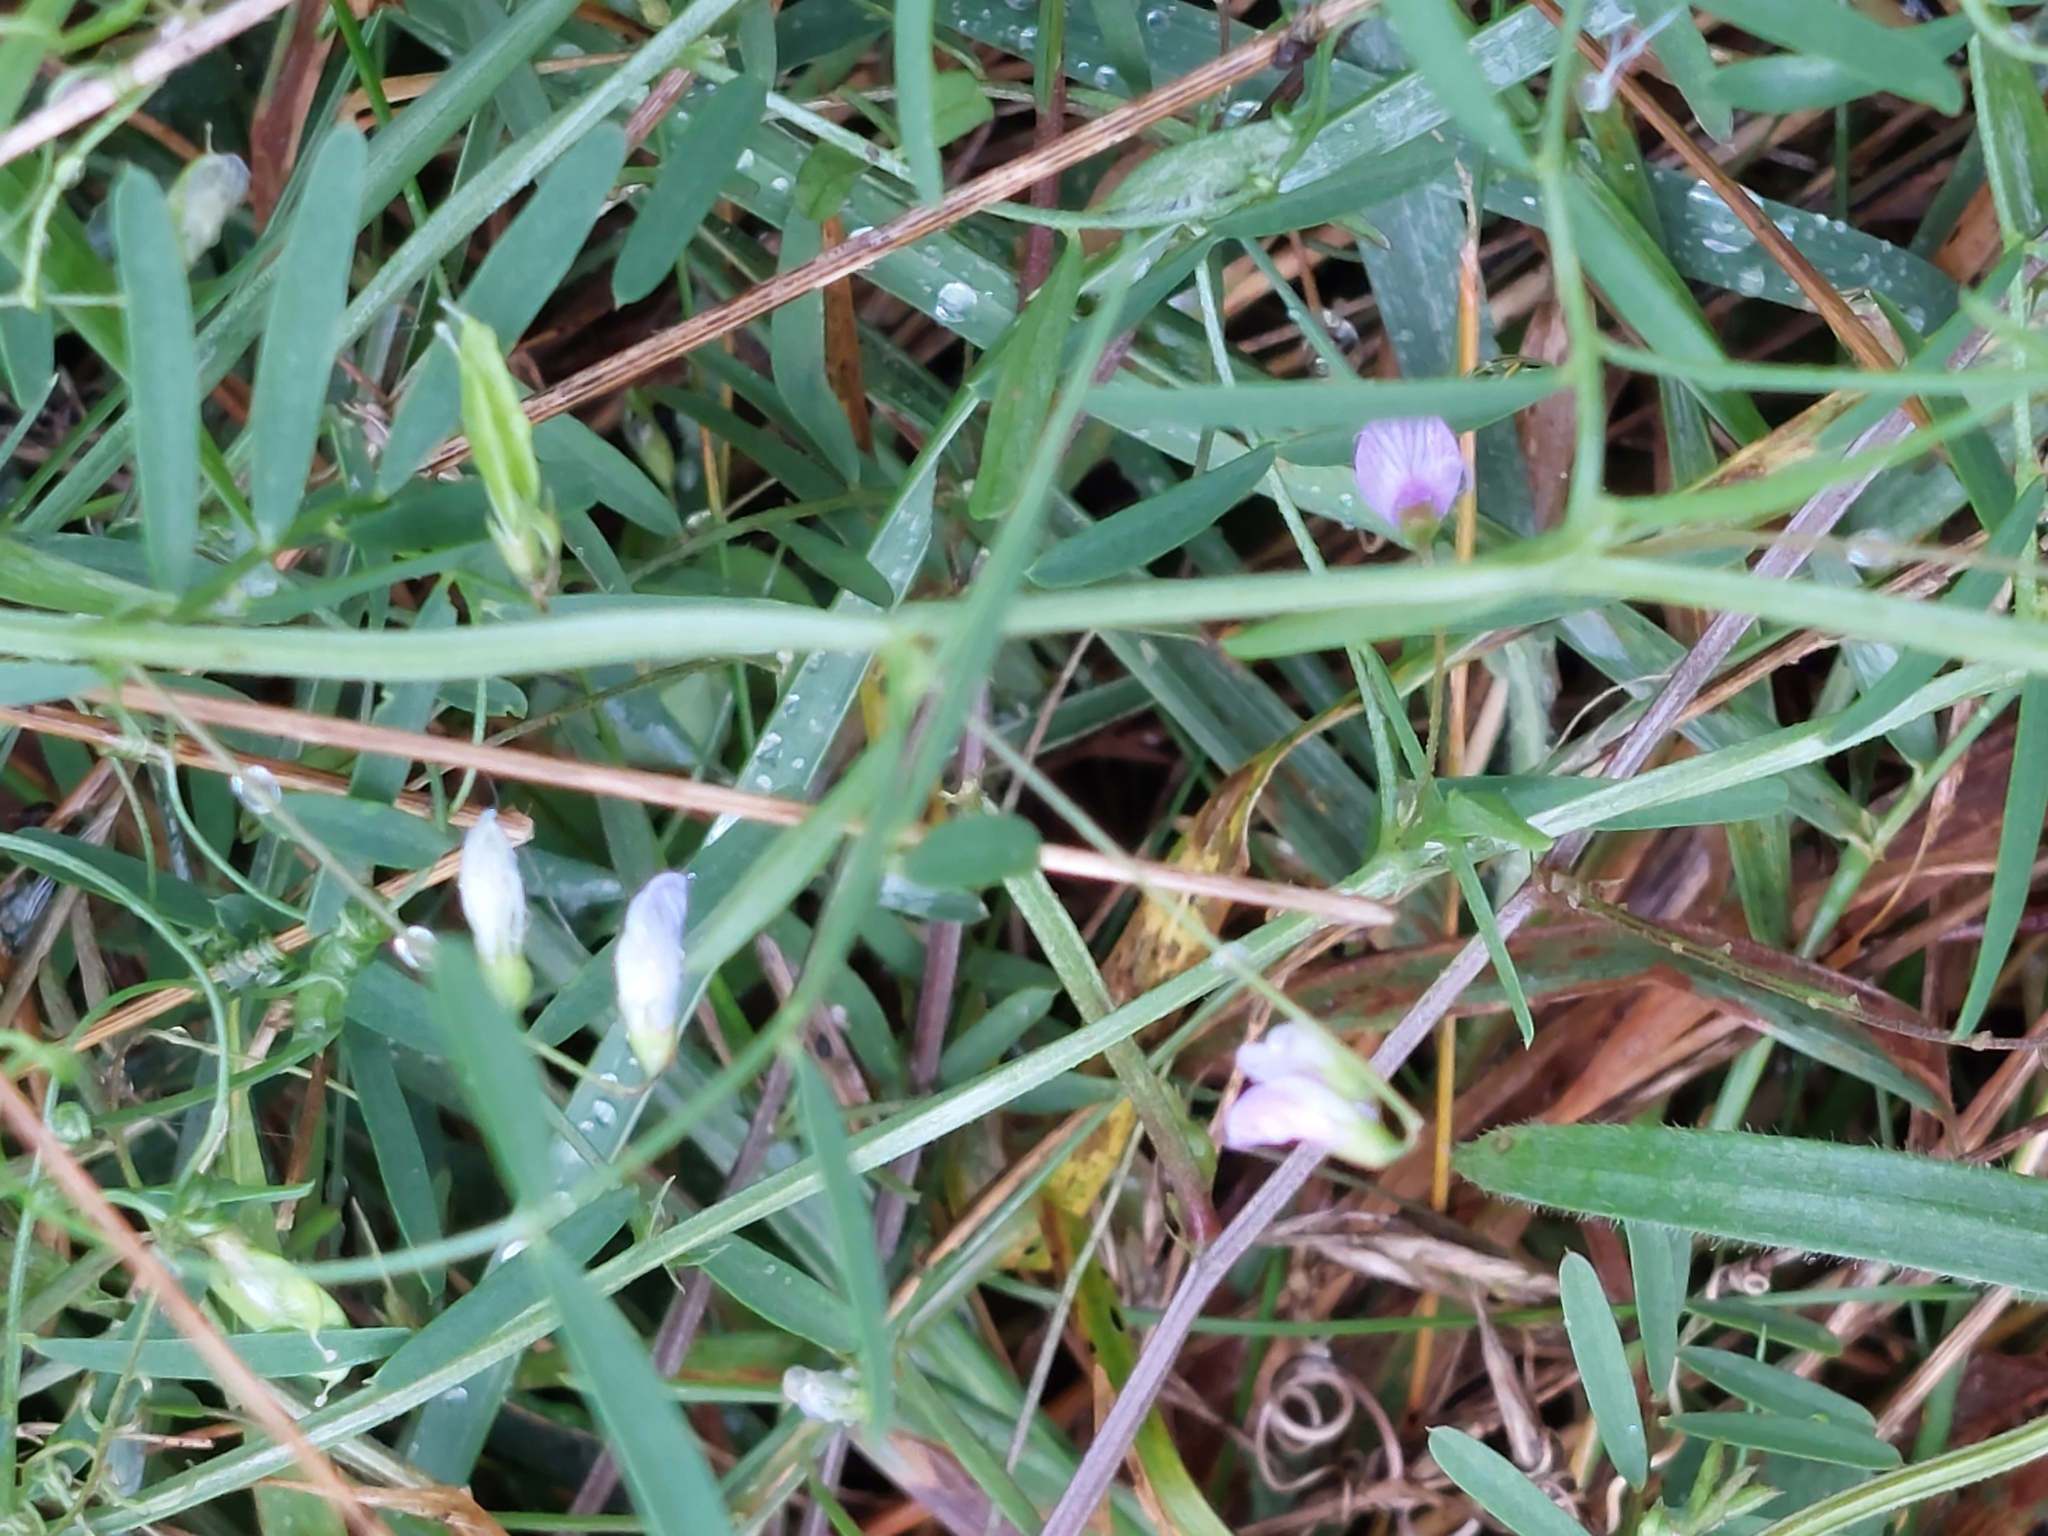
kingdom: Plantae
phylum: Tracheophyta
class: Magnoliopsida
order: Fabales
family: Fabaceae
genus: Vicia
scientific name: Vicia tetrasperma
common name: Smooth tare
